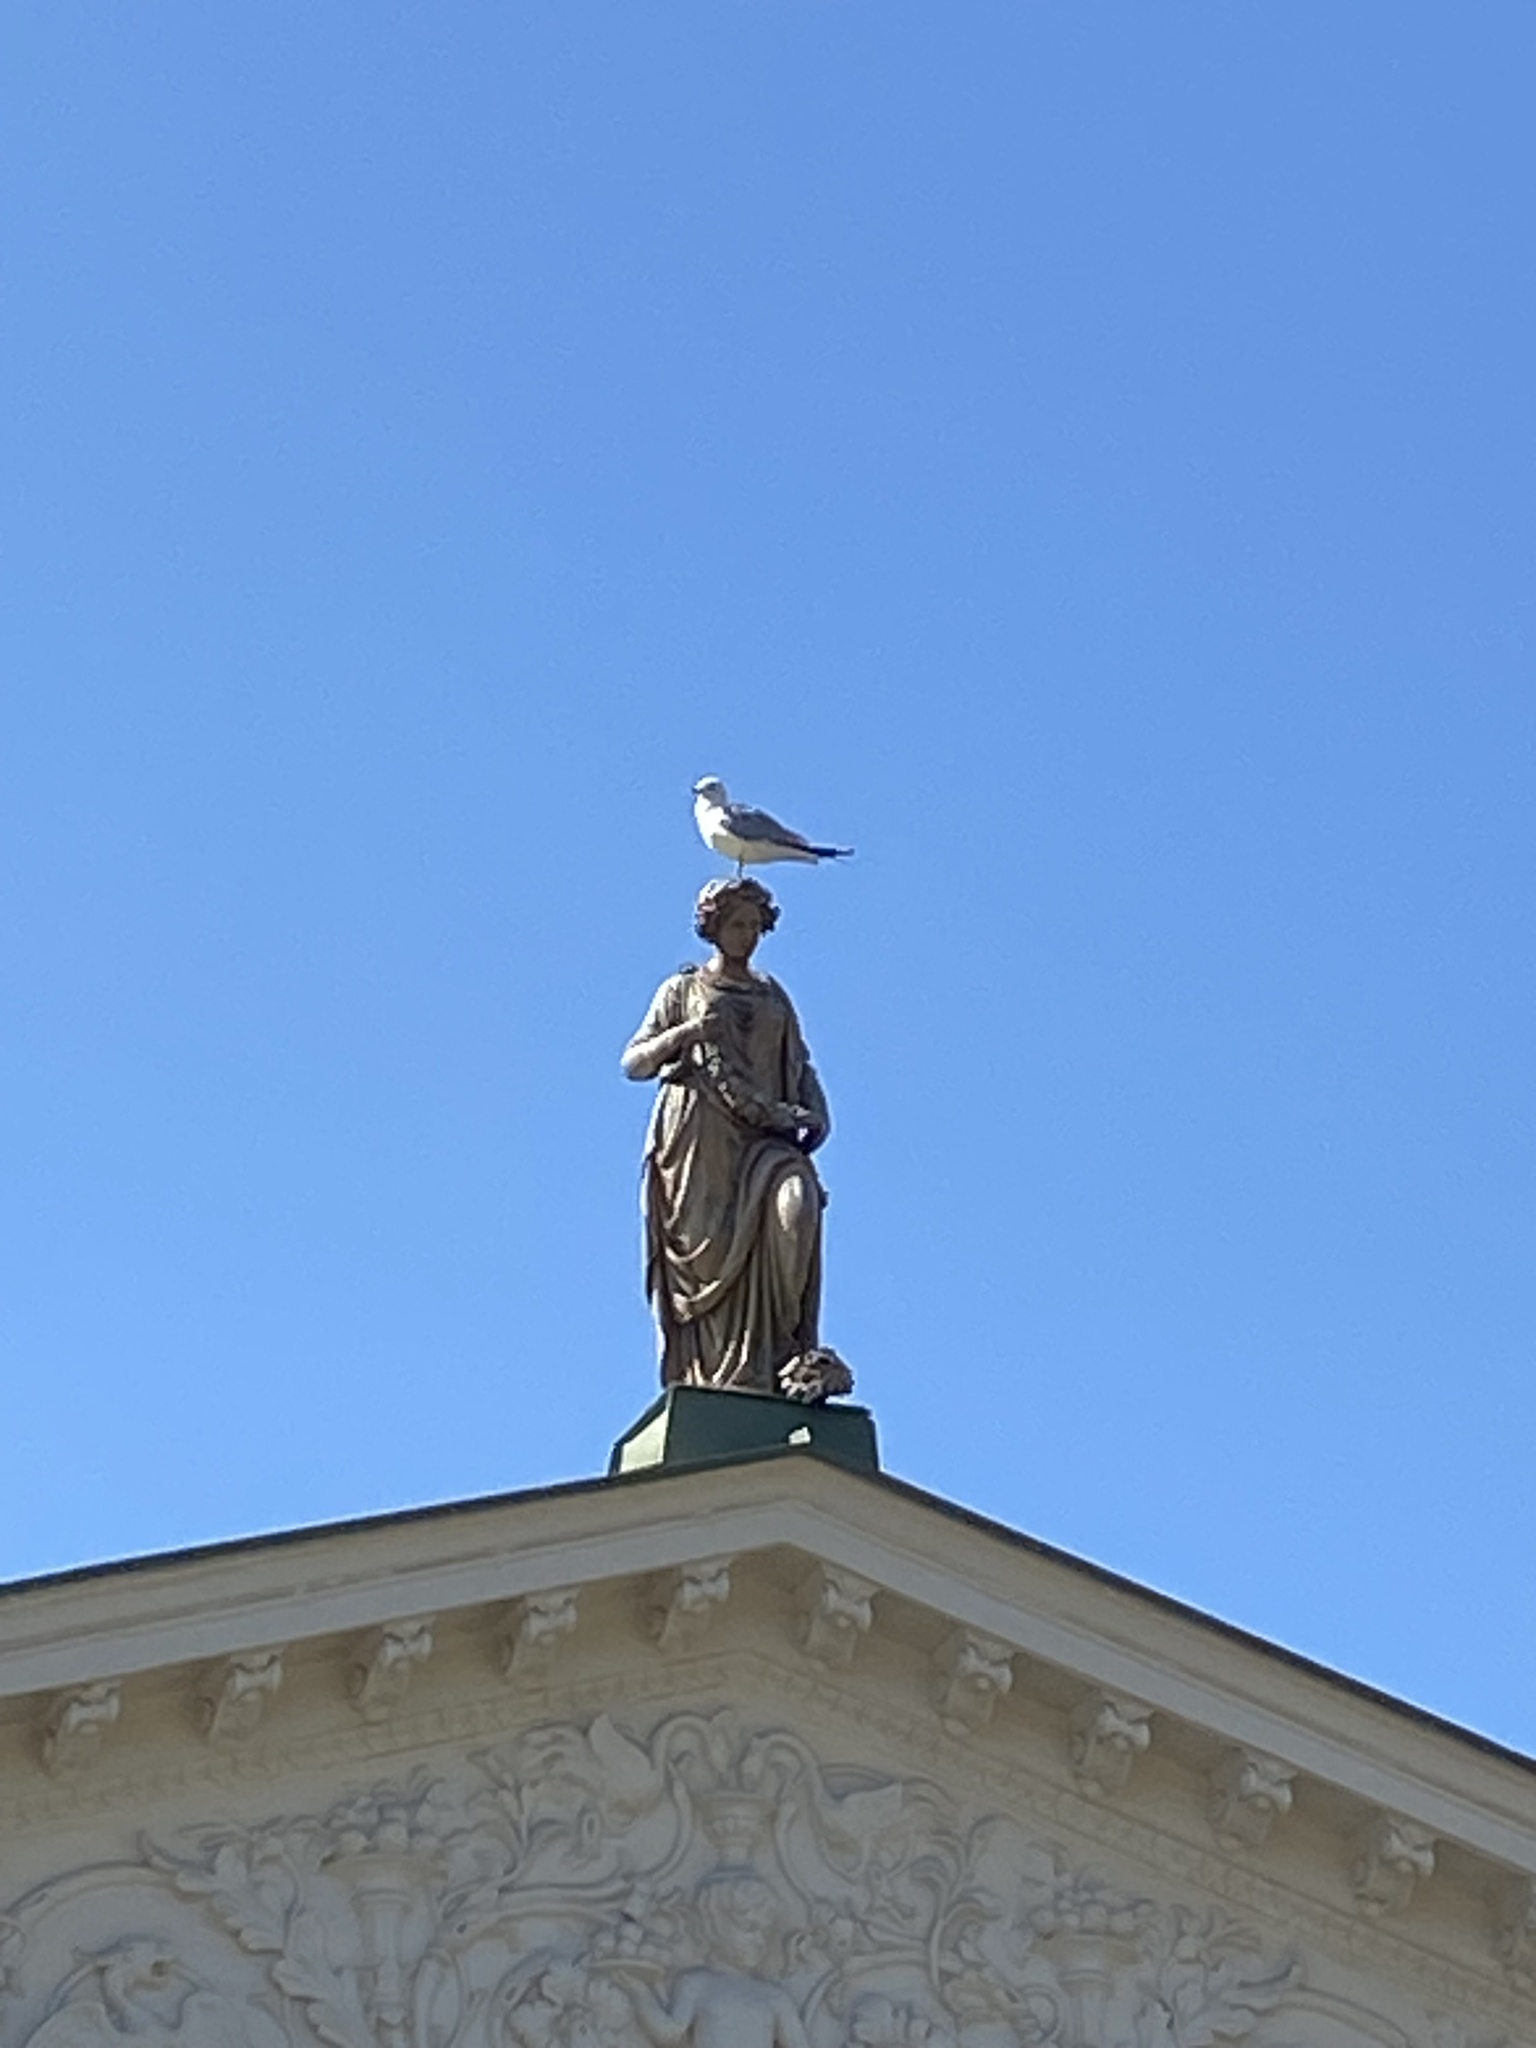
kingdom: Animalia
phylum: Chordata
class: Aves
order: Charadriiformes
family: Laridae
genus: Larus
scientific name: Larus canus
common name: Mew gull
